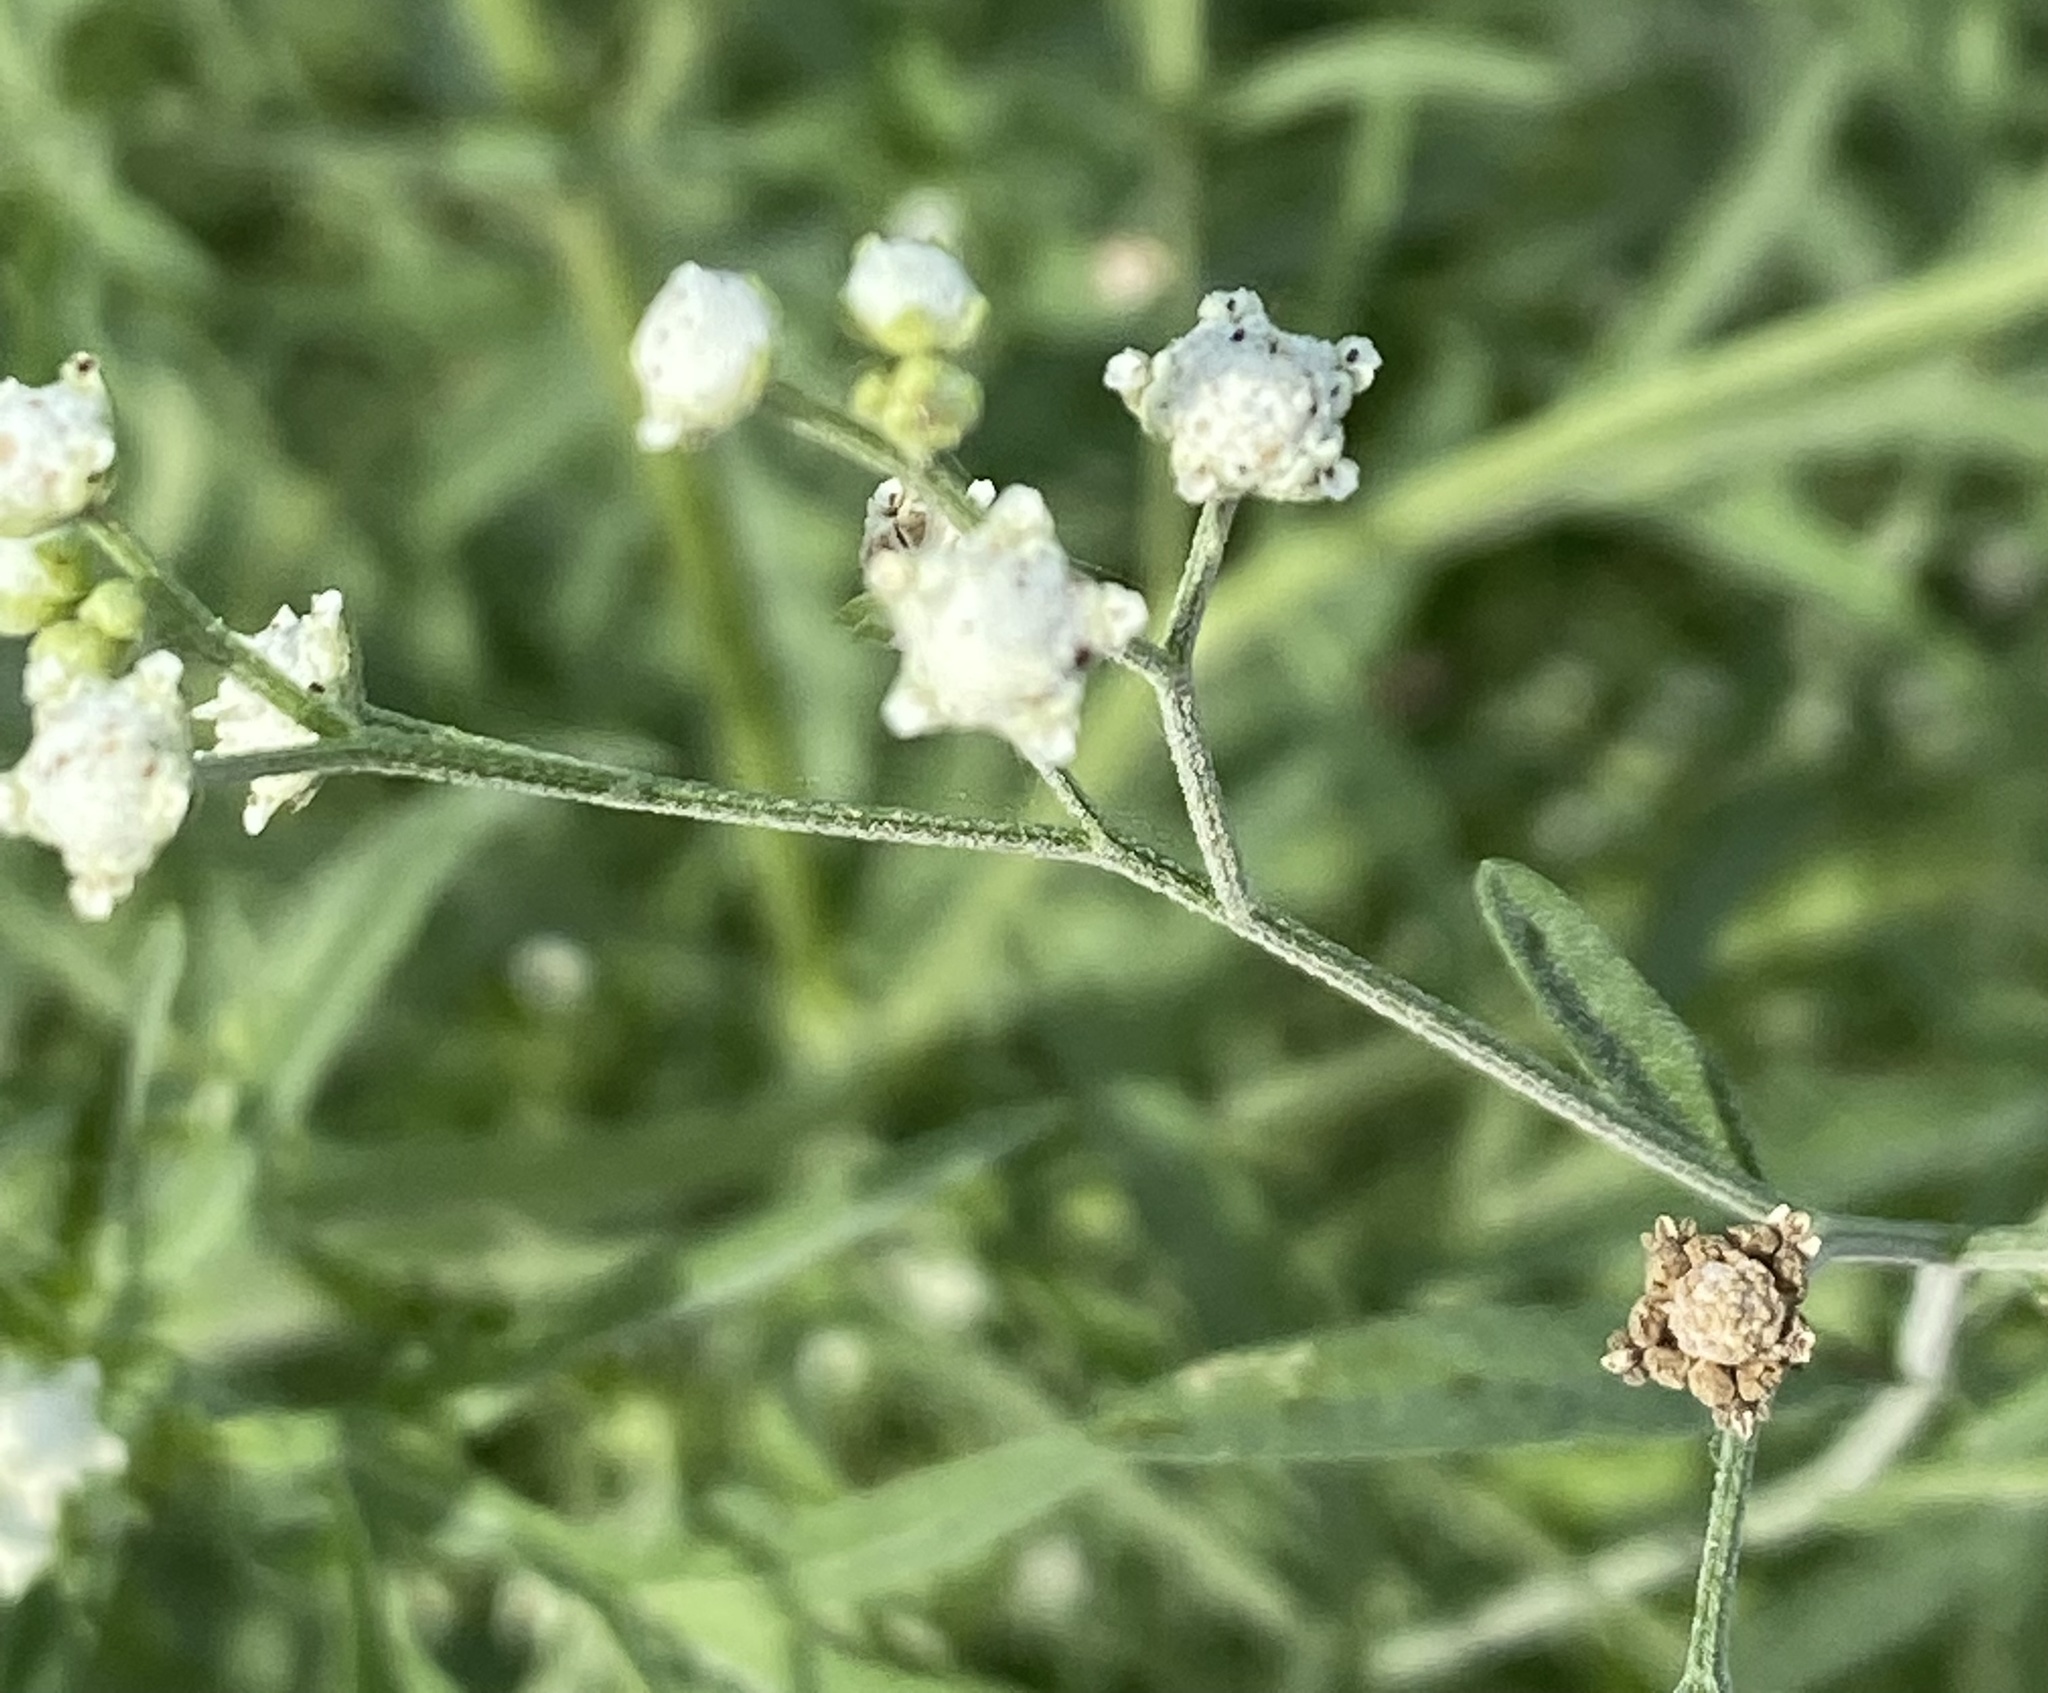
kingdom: Plantae
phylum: Tracheophyta
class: Magnoliopsida
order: Asterales
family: Asteraceae
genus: Parthenium
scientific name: Parthenium hysterophorus
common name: Santa maria feverfew
